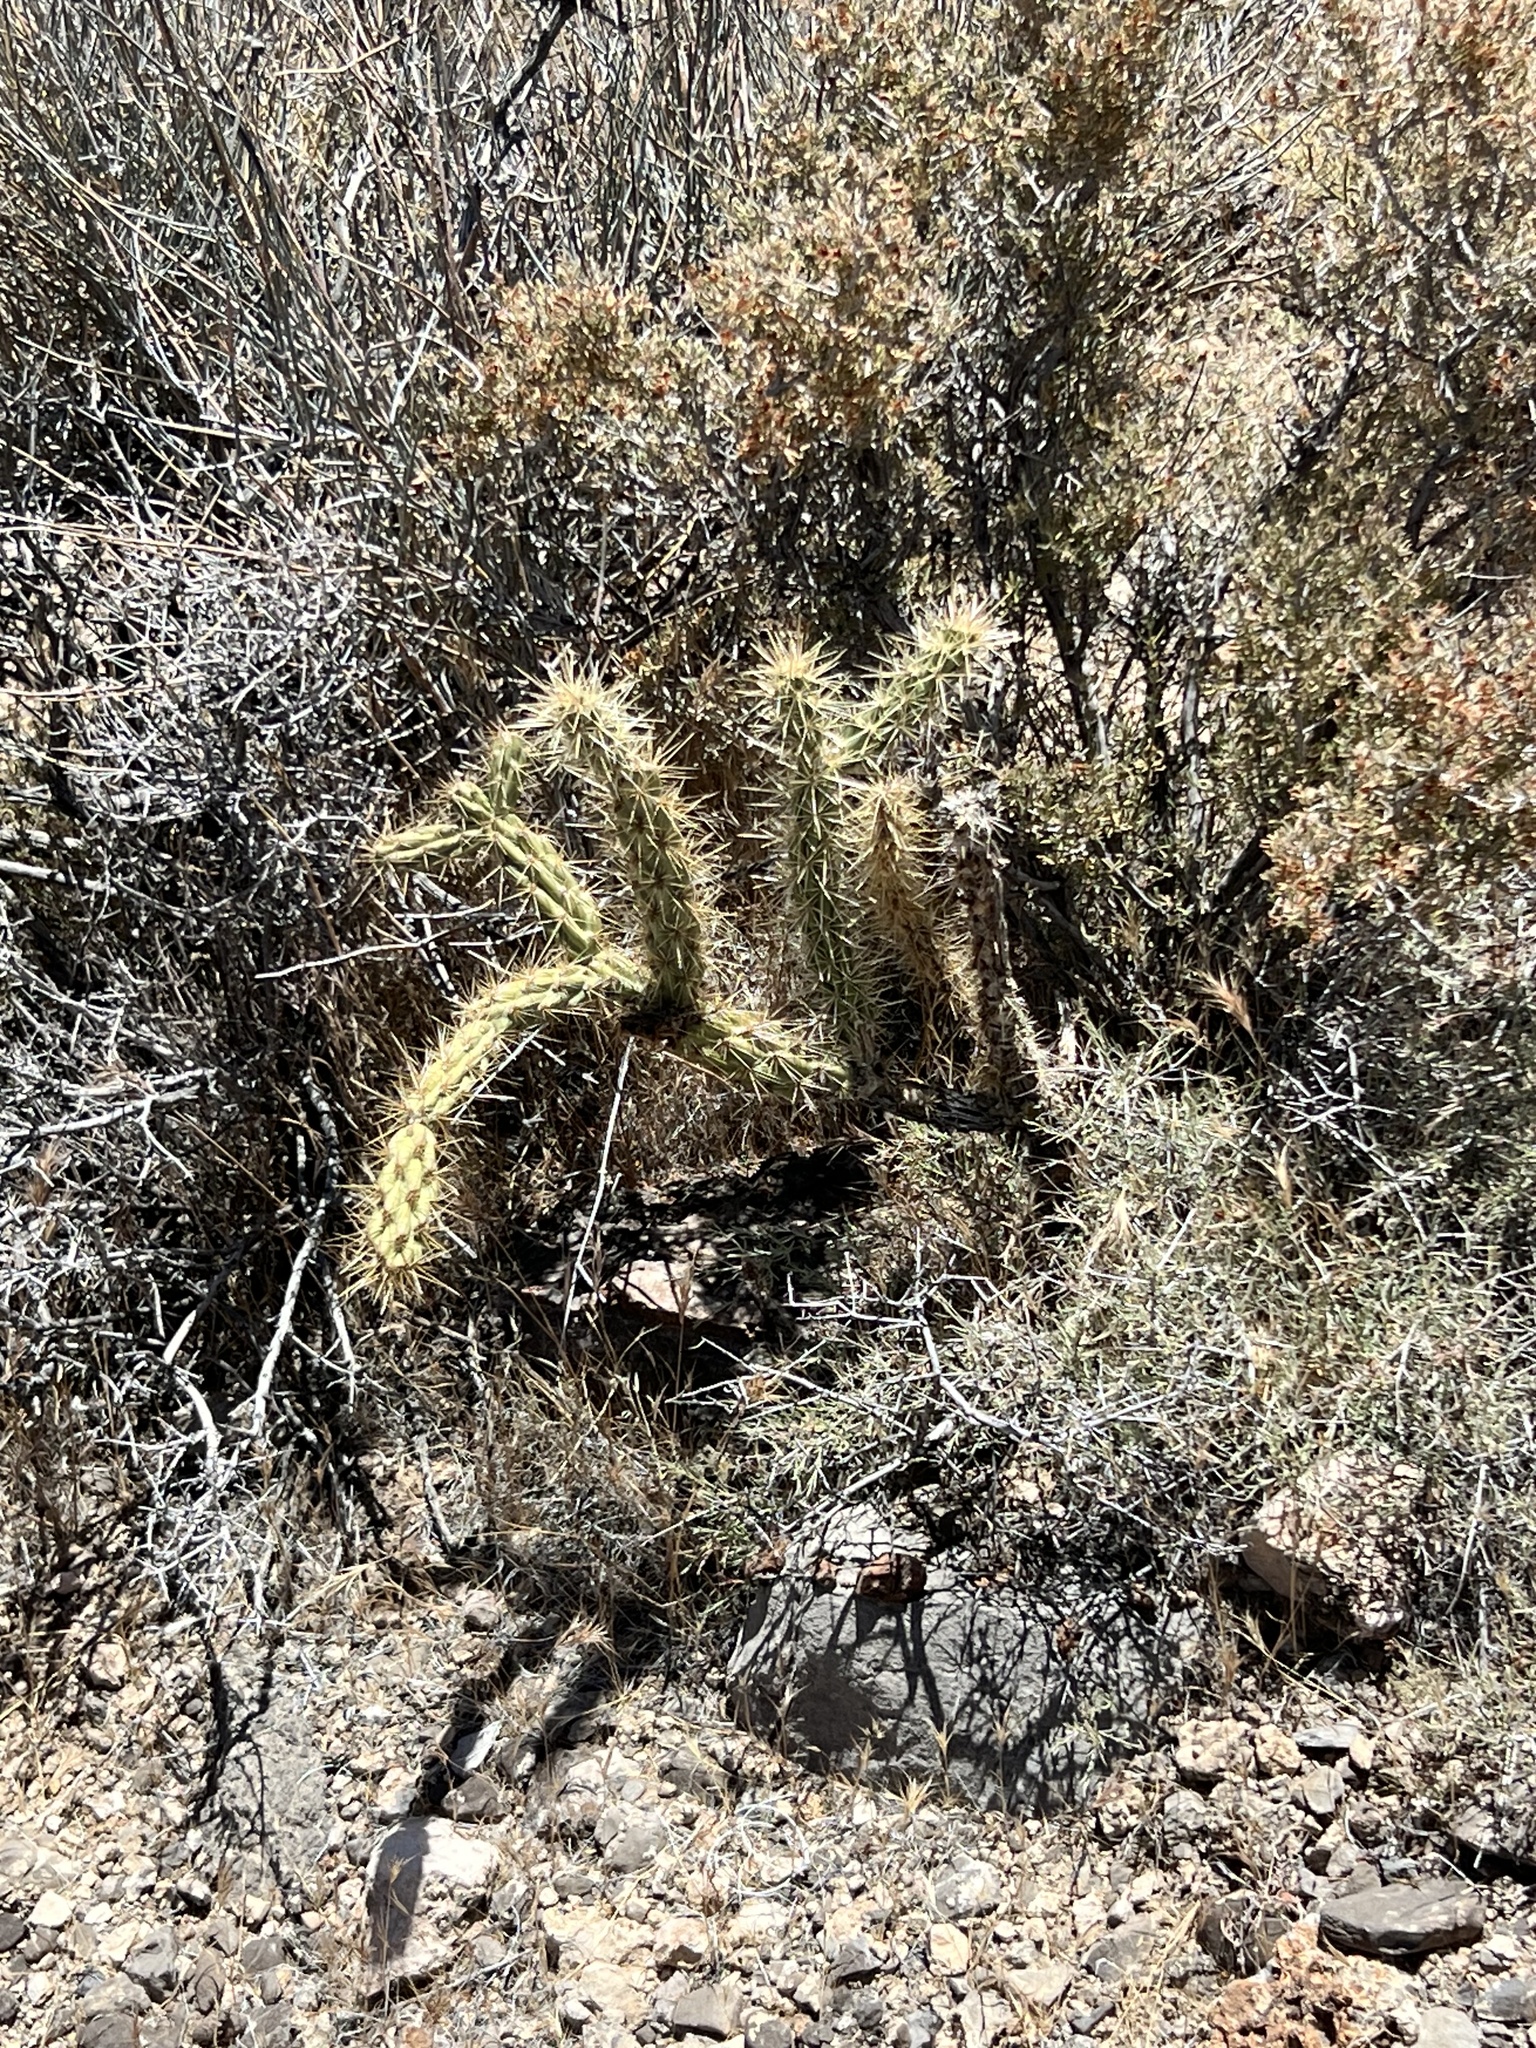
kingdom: Plantae
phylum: Tracheophyta
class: Magnoliopsida
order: Caryophyllales
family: Cactaceae
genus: Cylindropuntia
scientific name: Cylindropuntia acanthocarpa
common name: Buckhorn cholla
